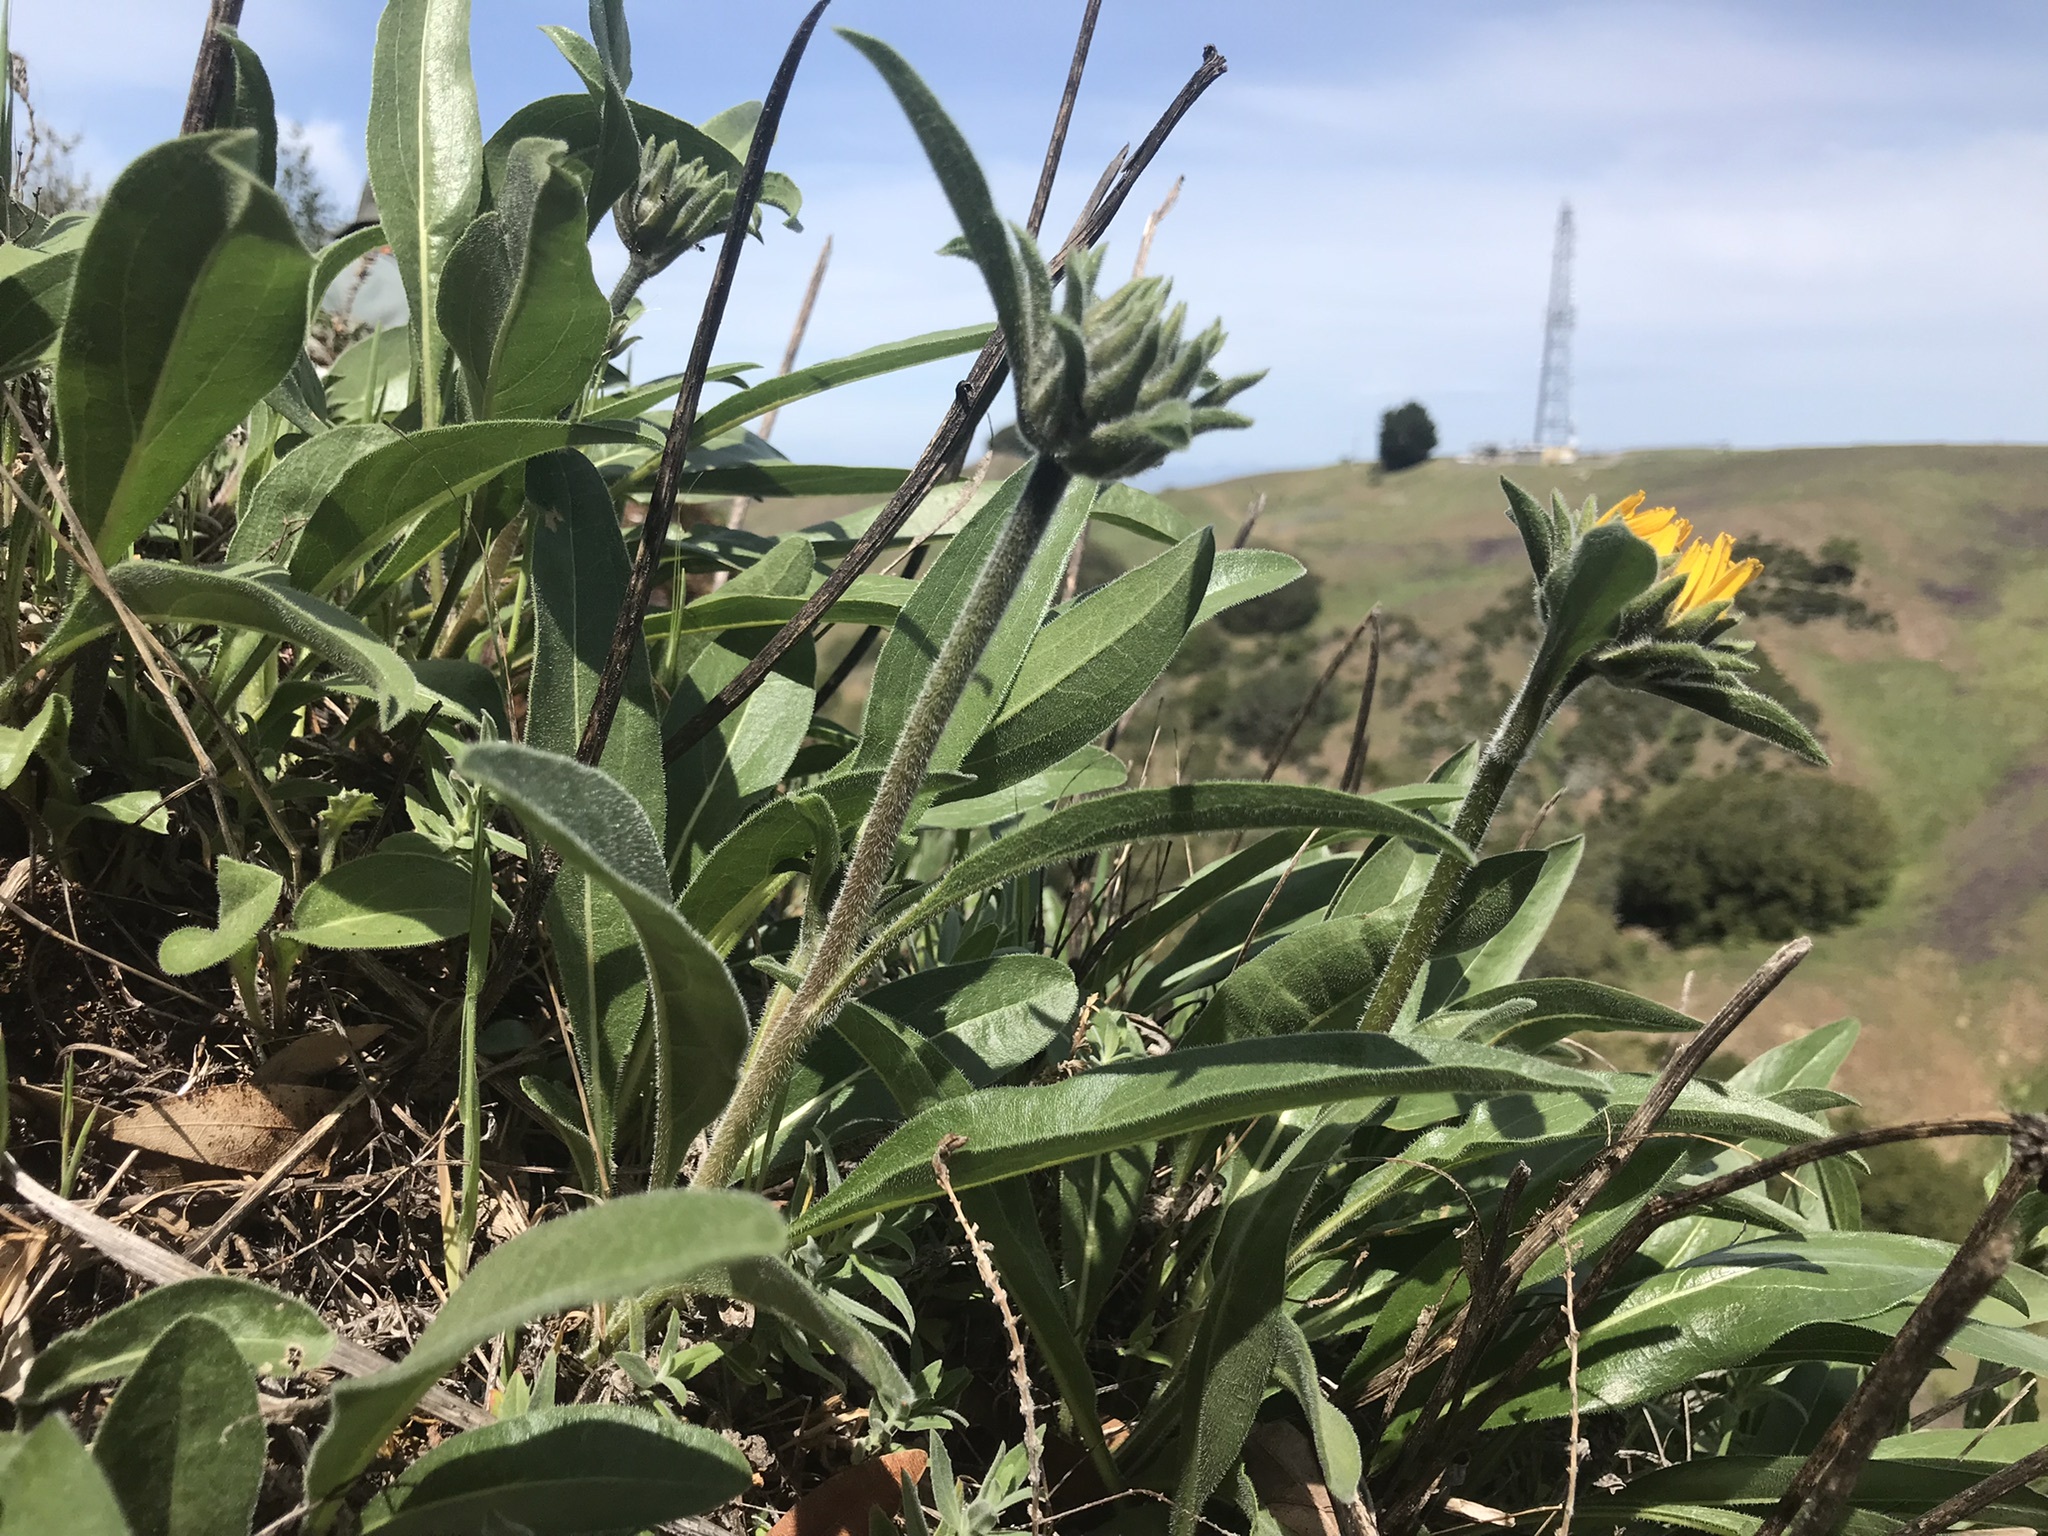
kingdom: Plantae
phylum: Tracheophyta
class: Magnoliopsida
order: Asterales
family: Asteraceae
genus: Helianthella
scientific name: Helianthella castanea
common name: Diablo helianthella
